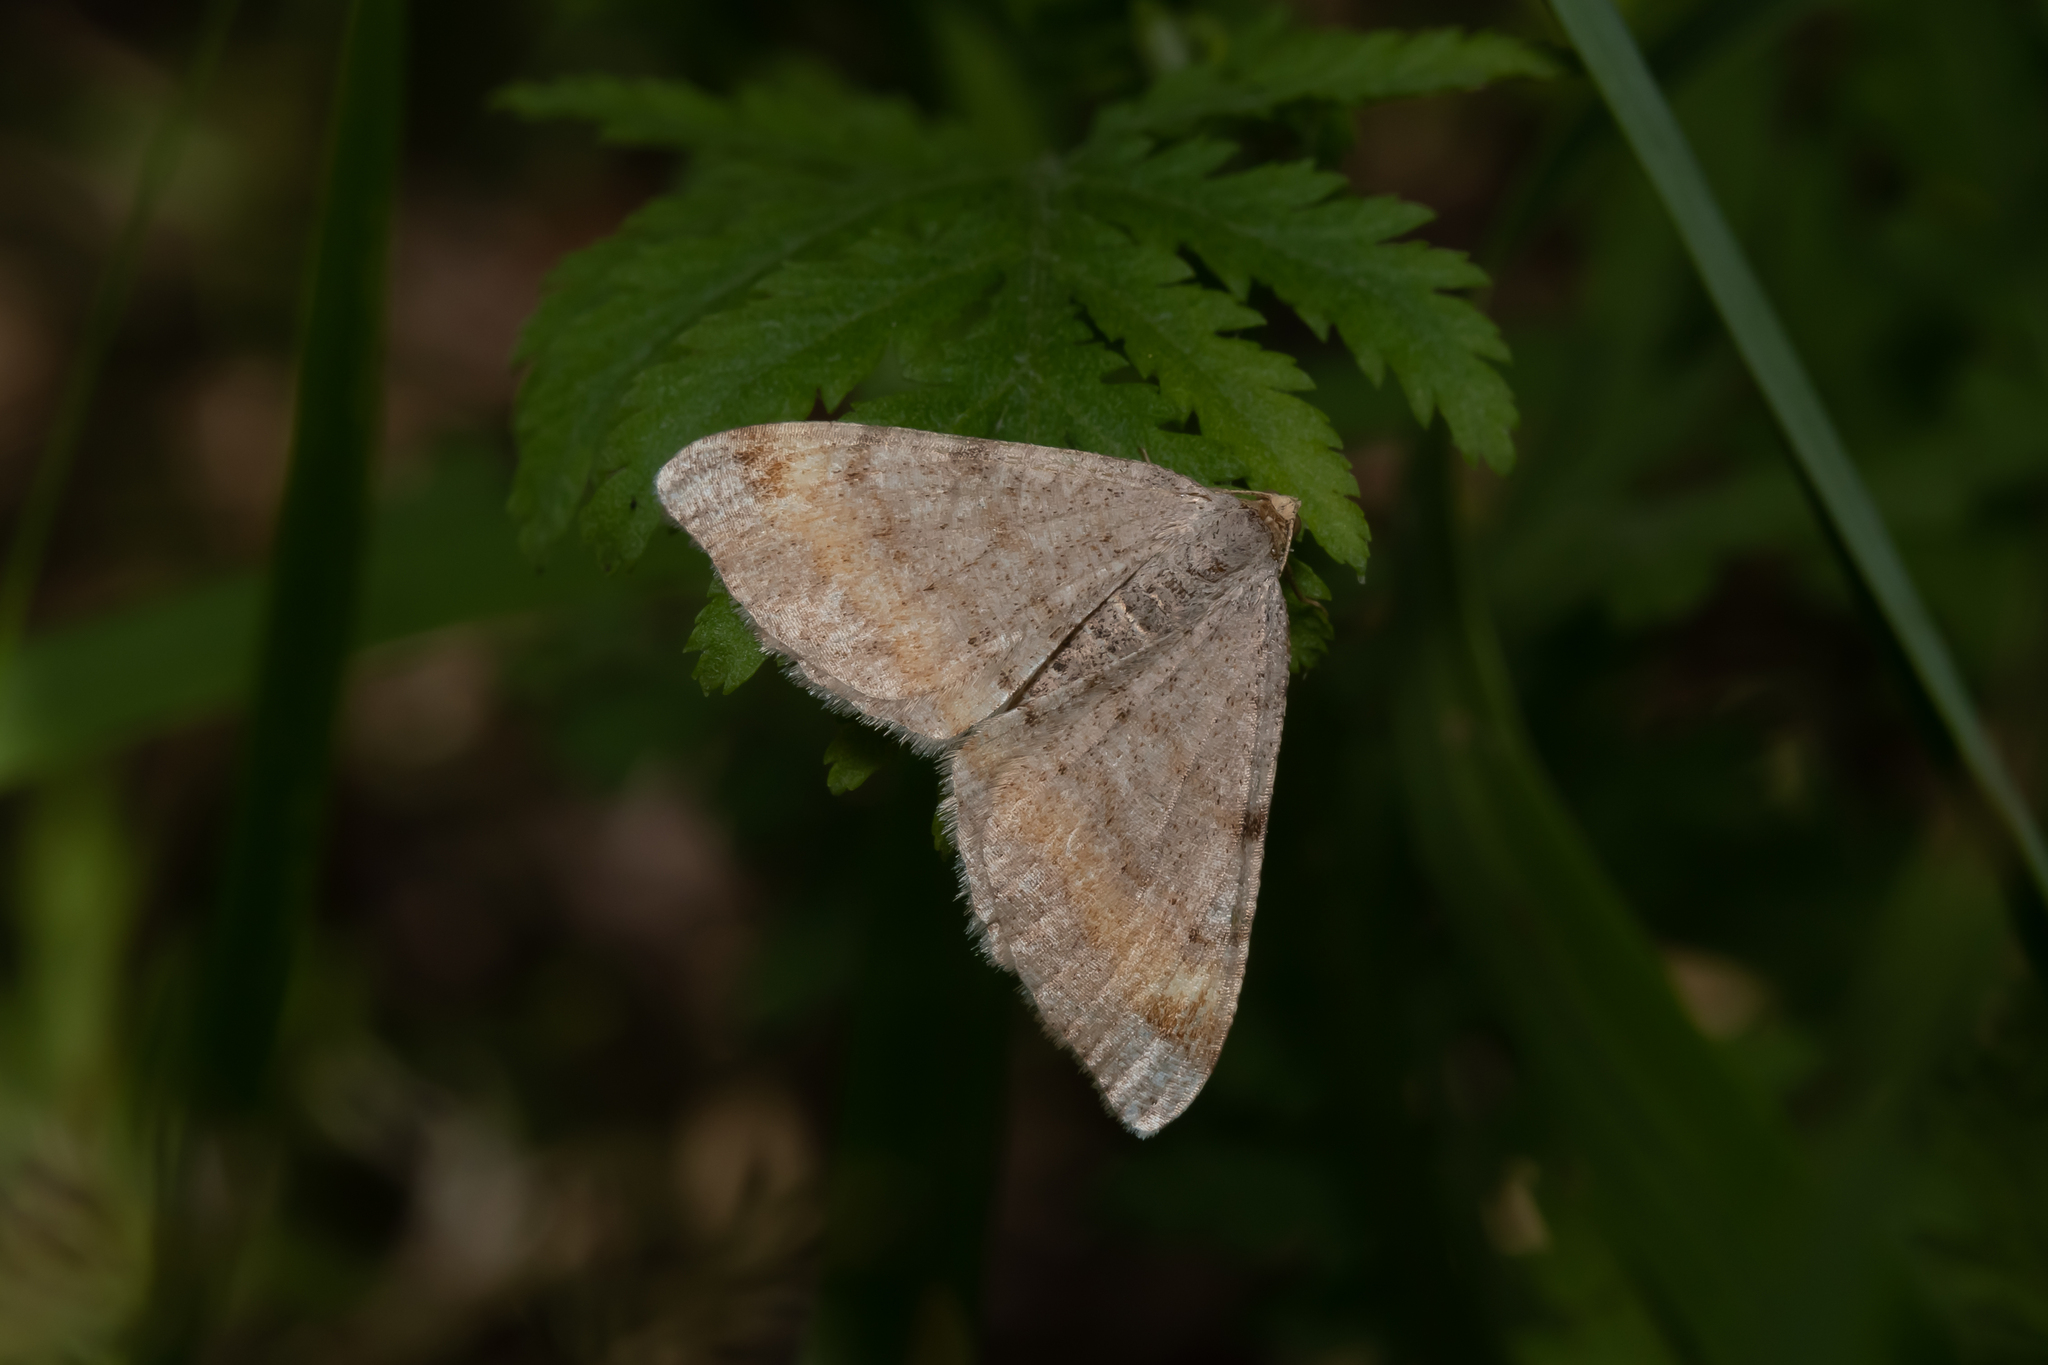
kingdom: Animalia
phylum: Arthropoda
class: Insecta
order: Lepidoptera
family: Geometridae
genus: Macaria
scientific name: Macaria liturata
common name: Tawny-barred angle
